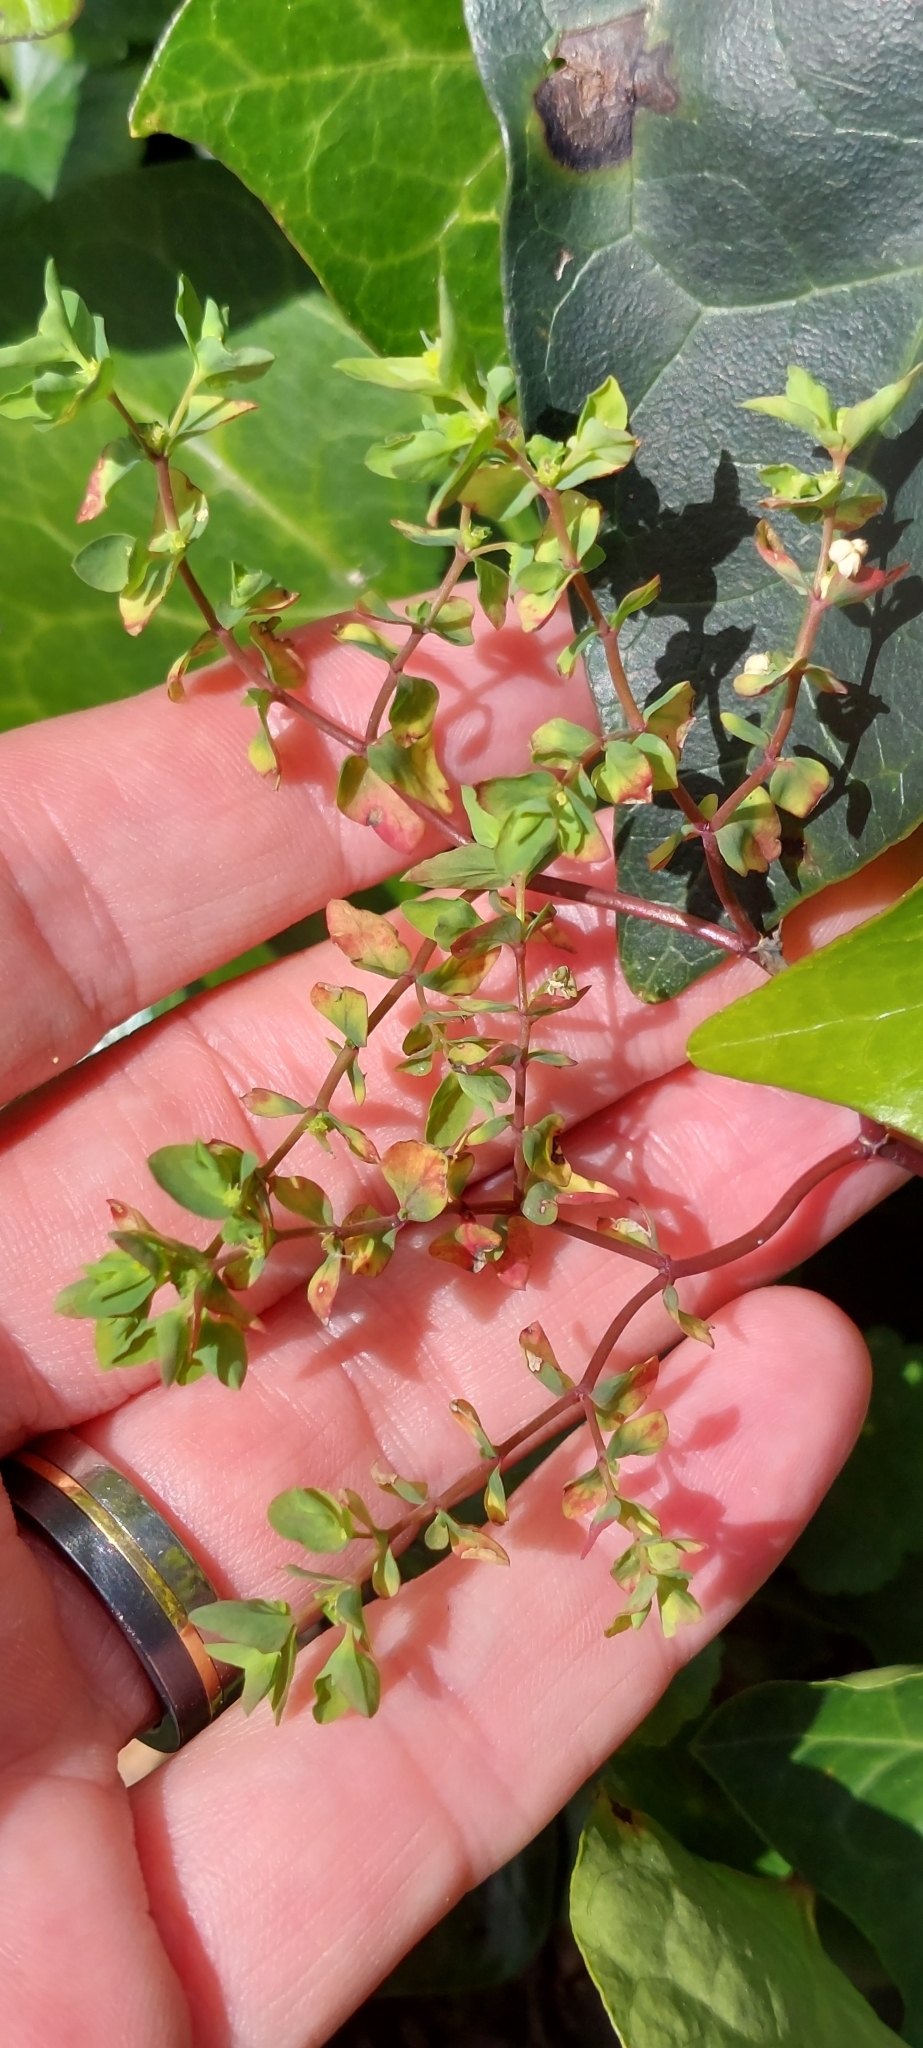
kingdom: Plantae
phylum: Tracheophyta
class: Magnoliopsida
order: Malpighiales
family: Euphorbiaceae
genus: Euphorbia
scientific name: Euphorbia peplus
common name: Petty spurge
